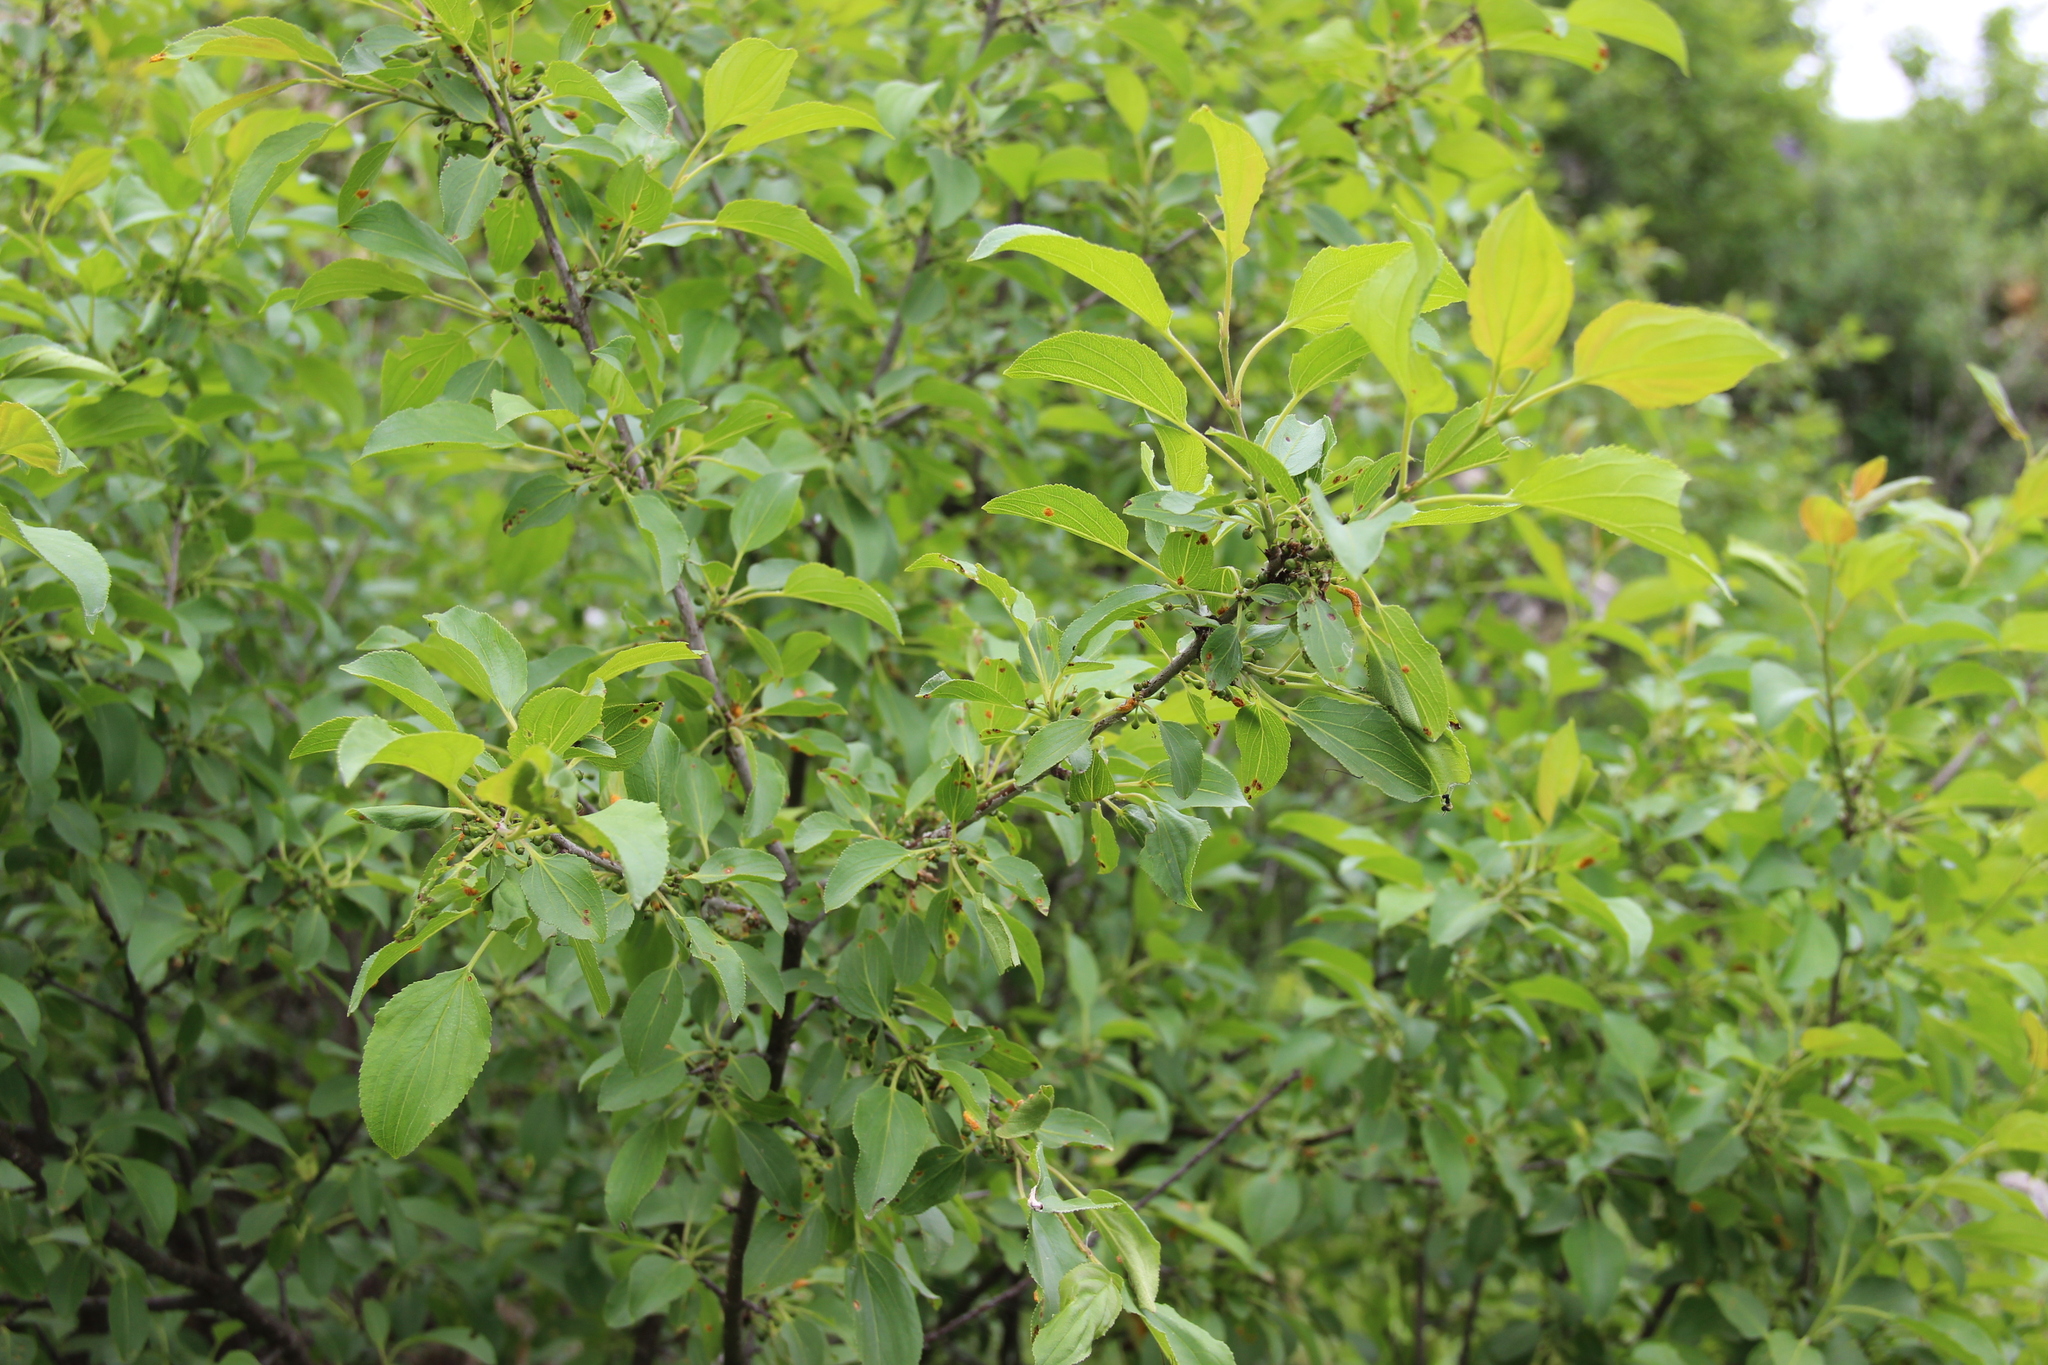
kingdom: Plantae
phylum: Tracheophyta
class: Magnoliopsida
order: Rosales
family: Rhamnaceae
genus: Rhamnus
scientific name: Rhamnus cathartica
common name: Common buckthorn
